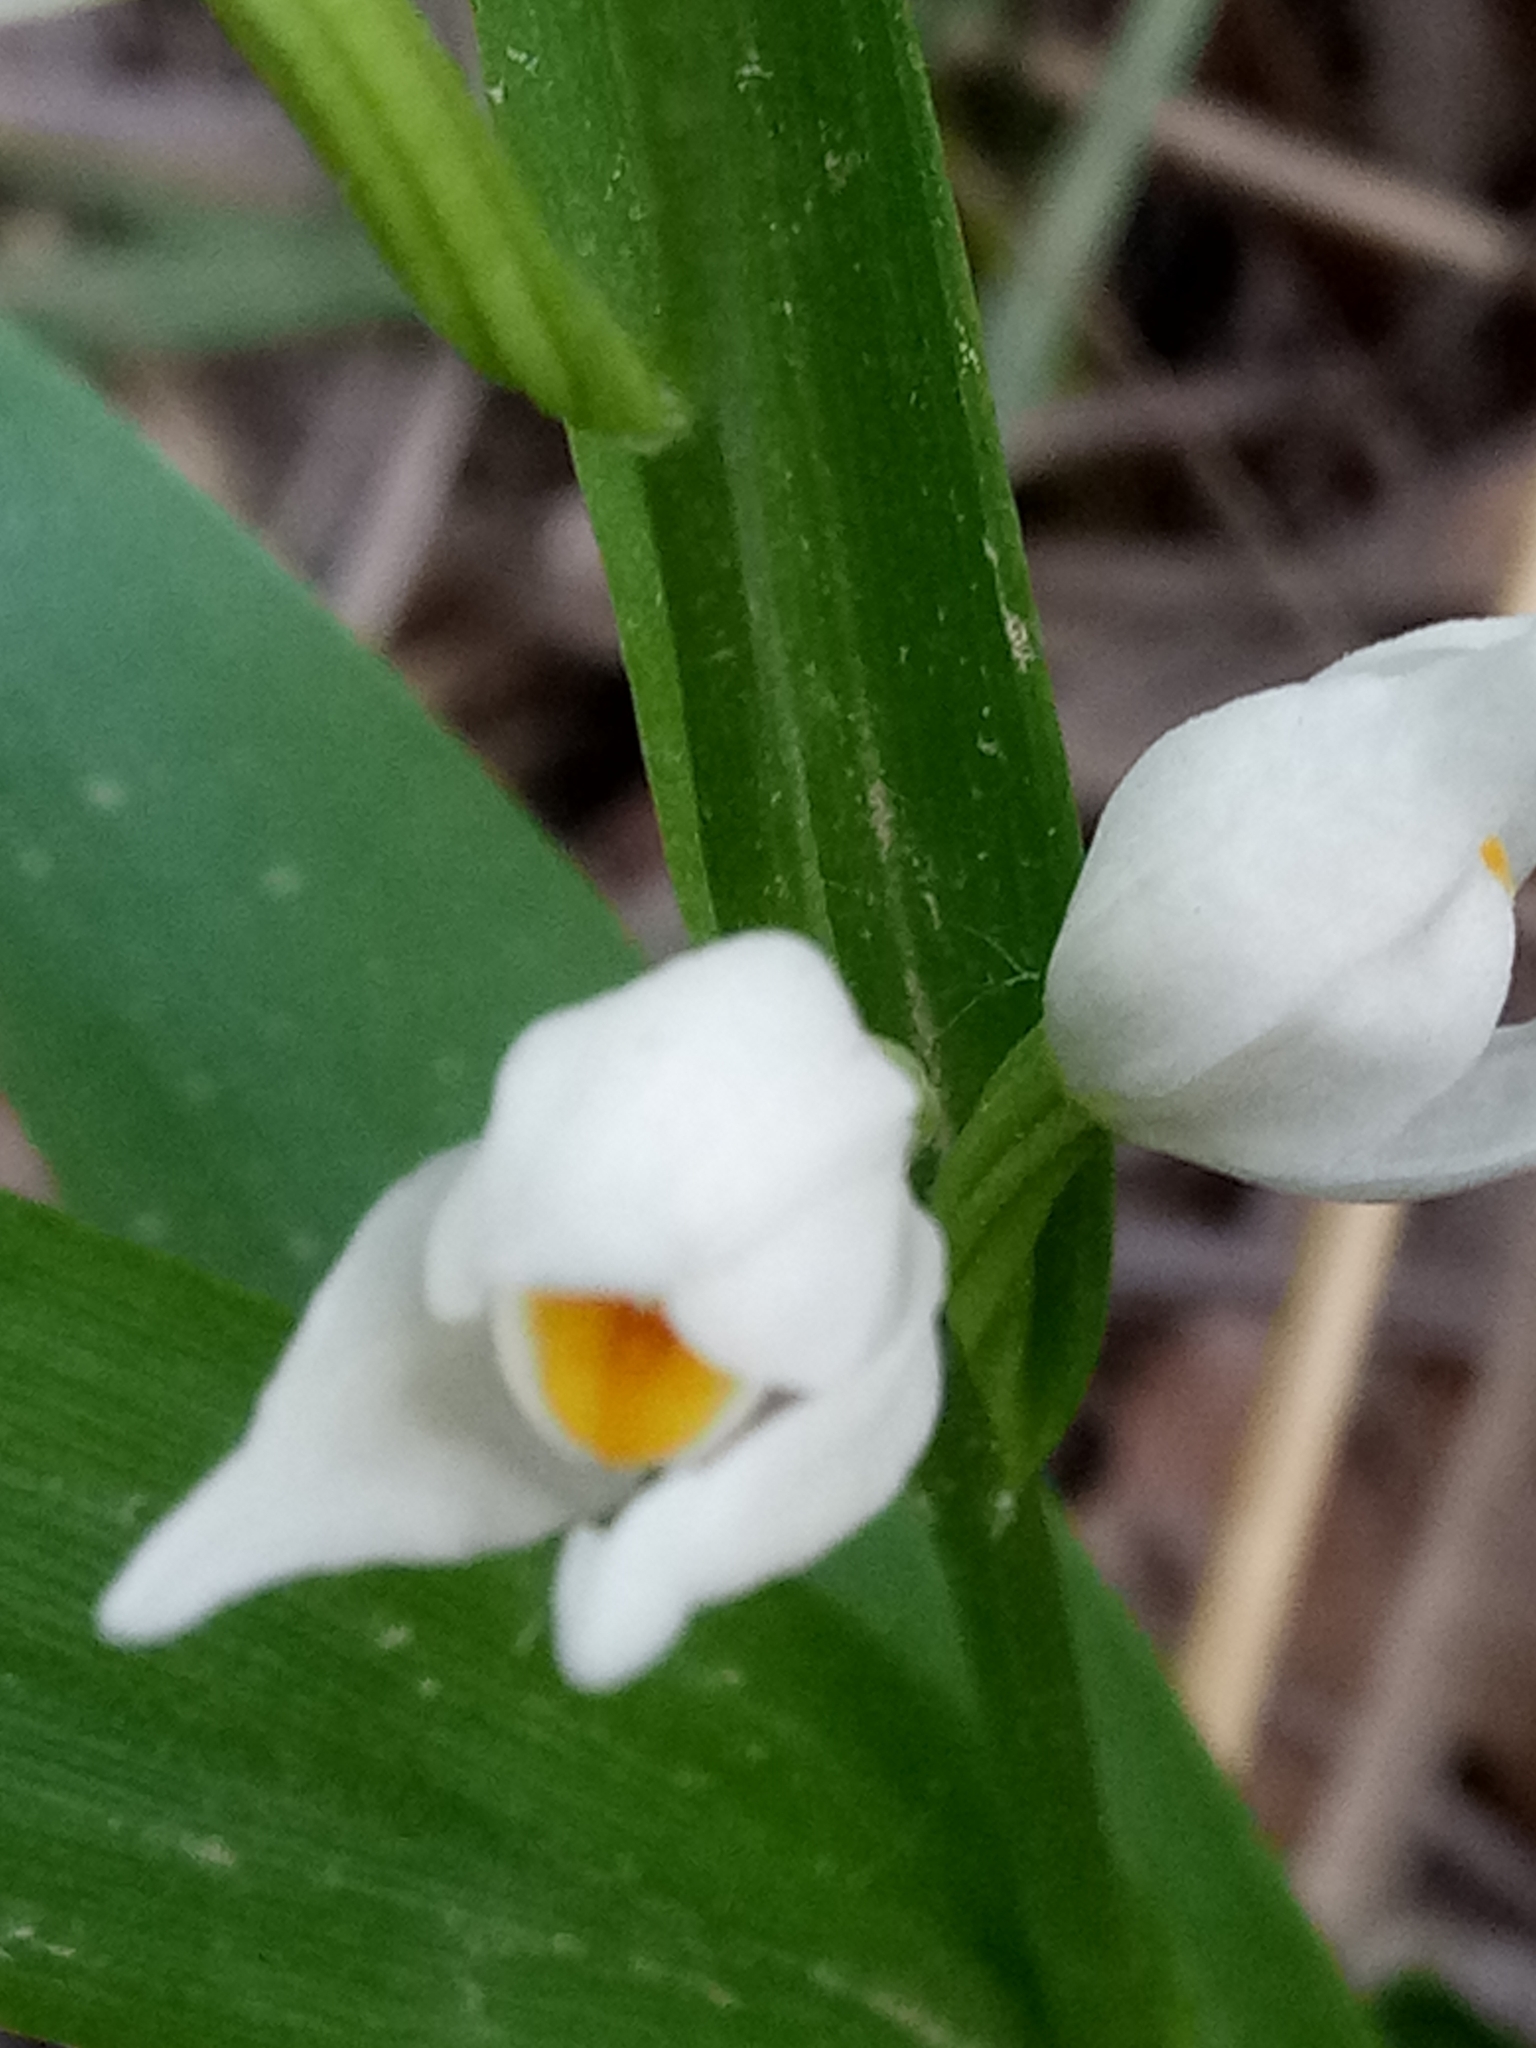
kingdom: Plantae
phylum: Tracheophyta
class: Liliopsida
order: Asparagales
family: Orchidaceae
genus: Cephalanthera
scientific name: Cephalanthera longifolia
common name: Narrow-leaved helleborine
